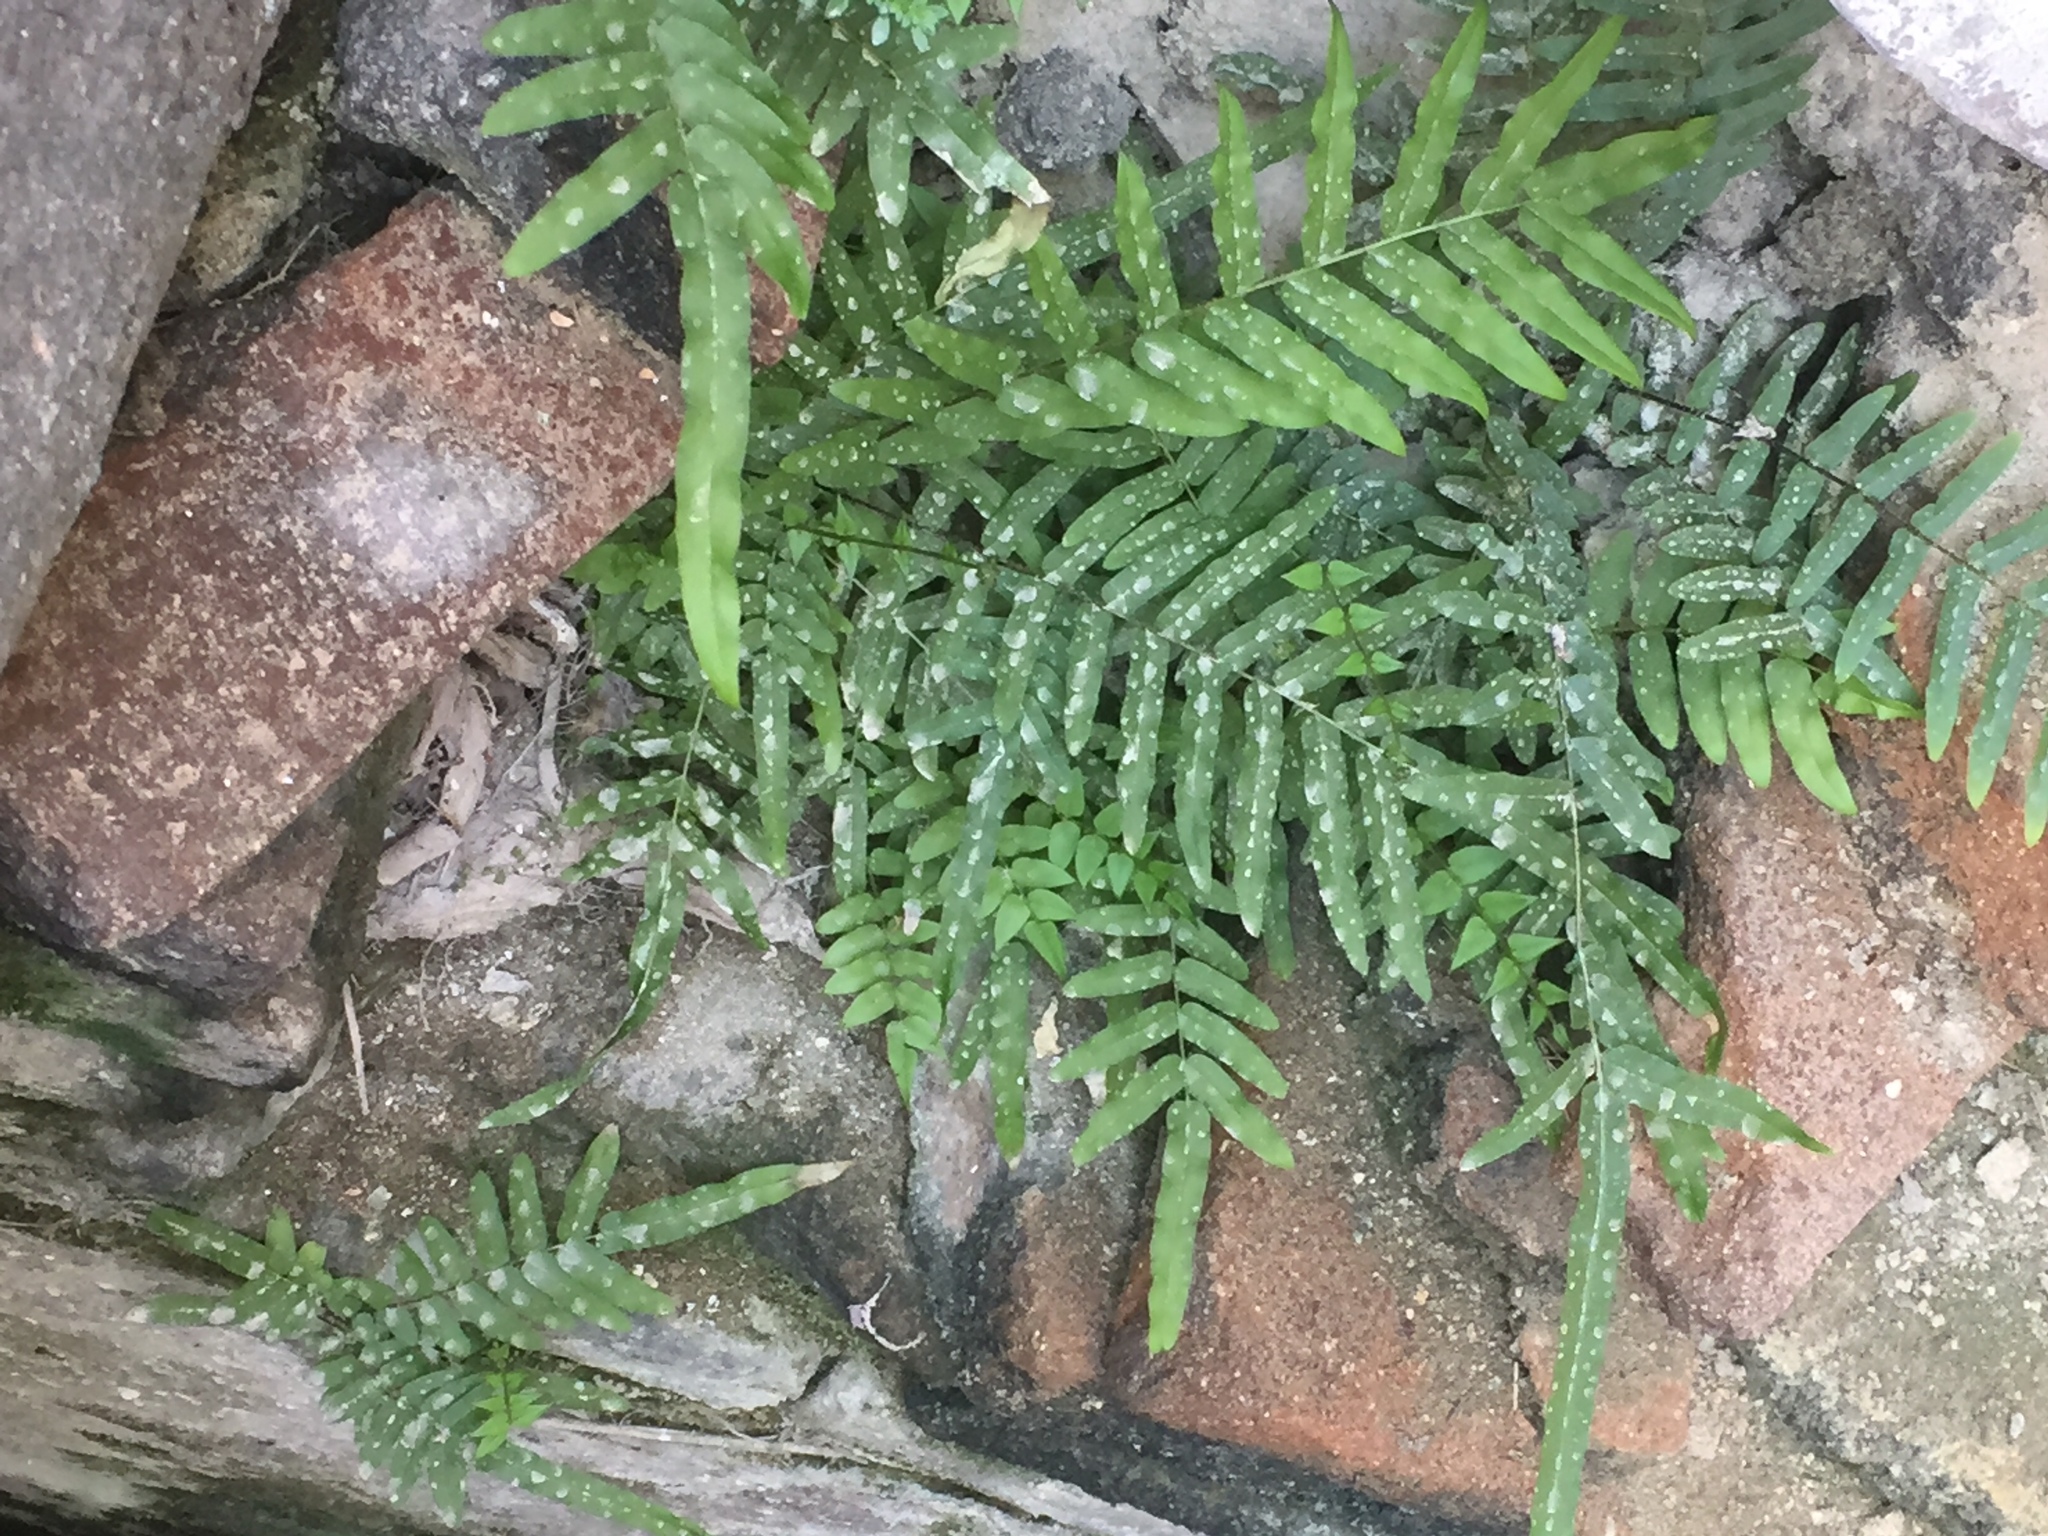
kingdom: Plantae
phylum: Tracheophyta
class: Polypodiopsida
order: Polypodiales
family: Pteridaceae
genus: Pteris
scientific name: Pteris vittata
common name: Ladder brake
